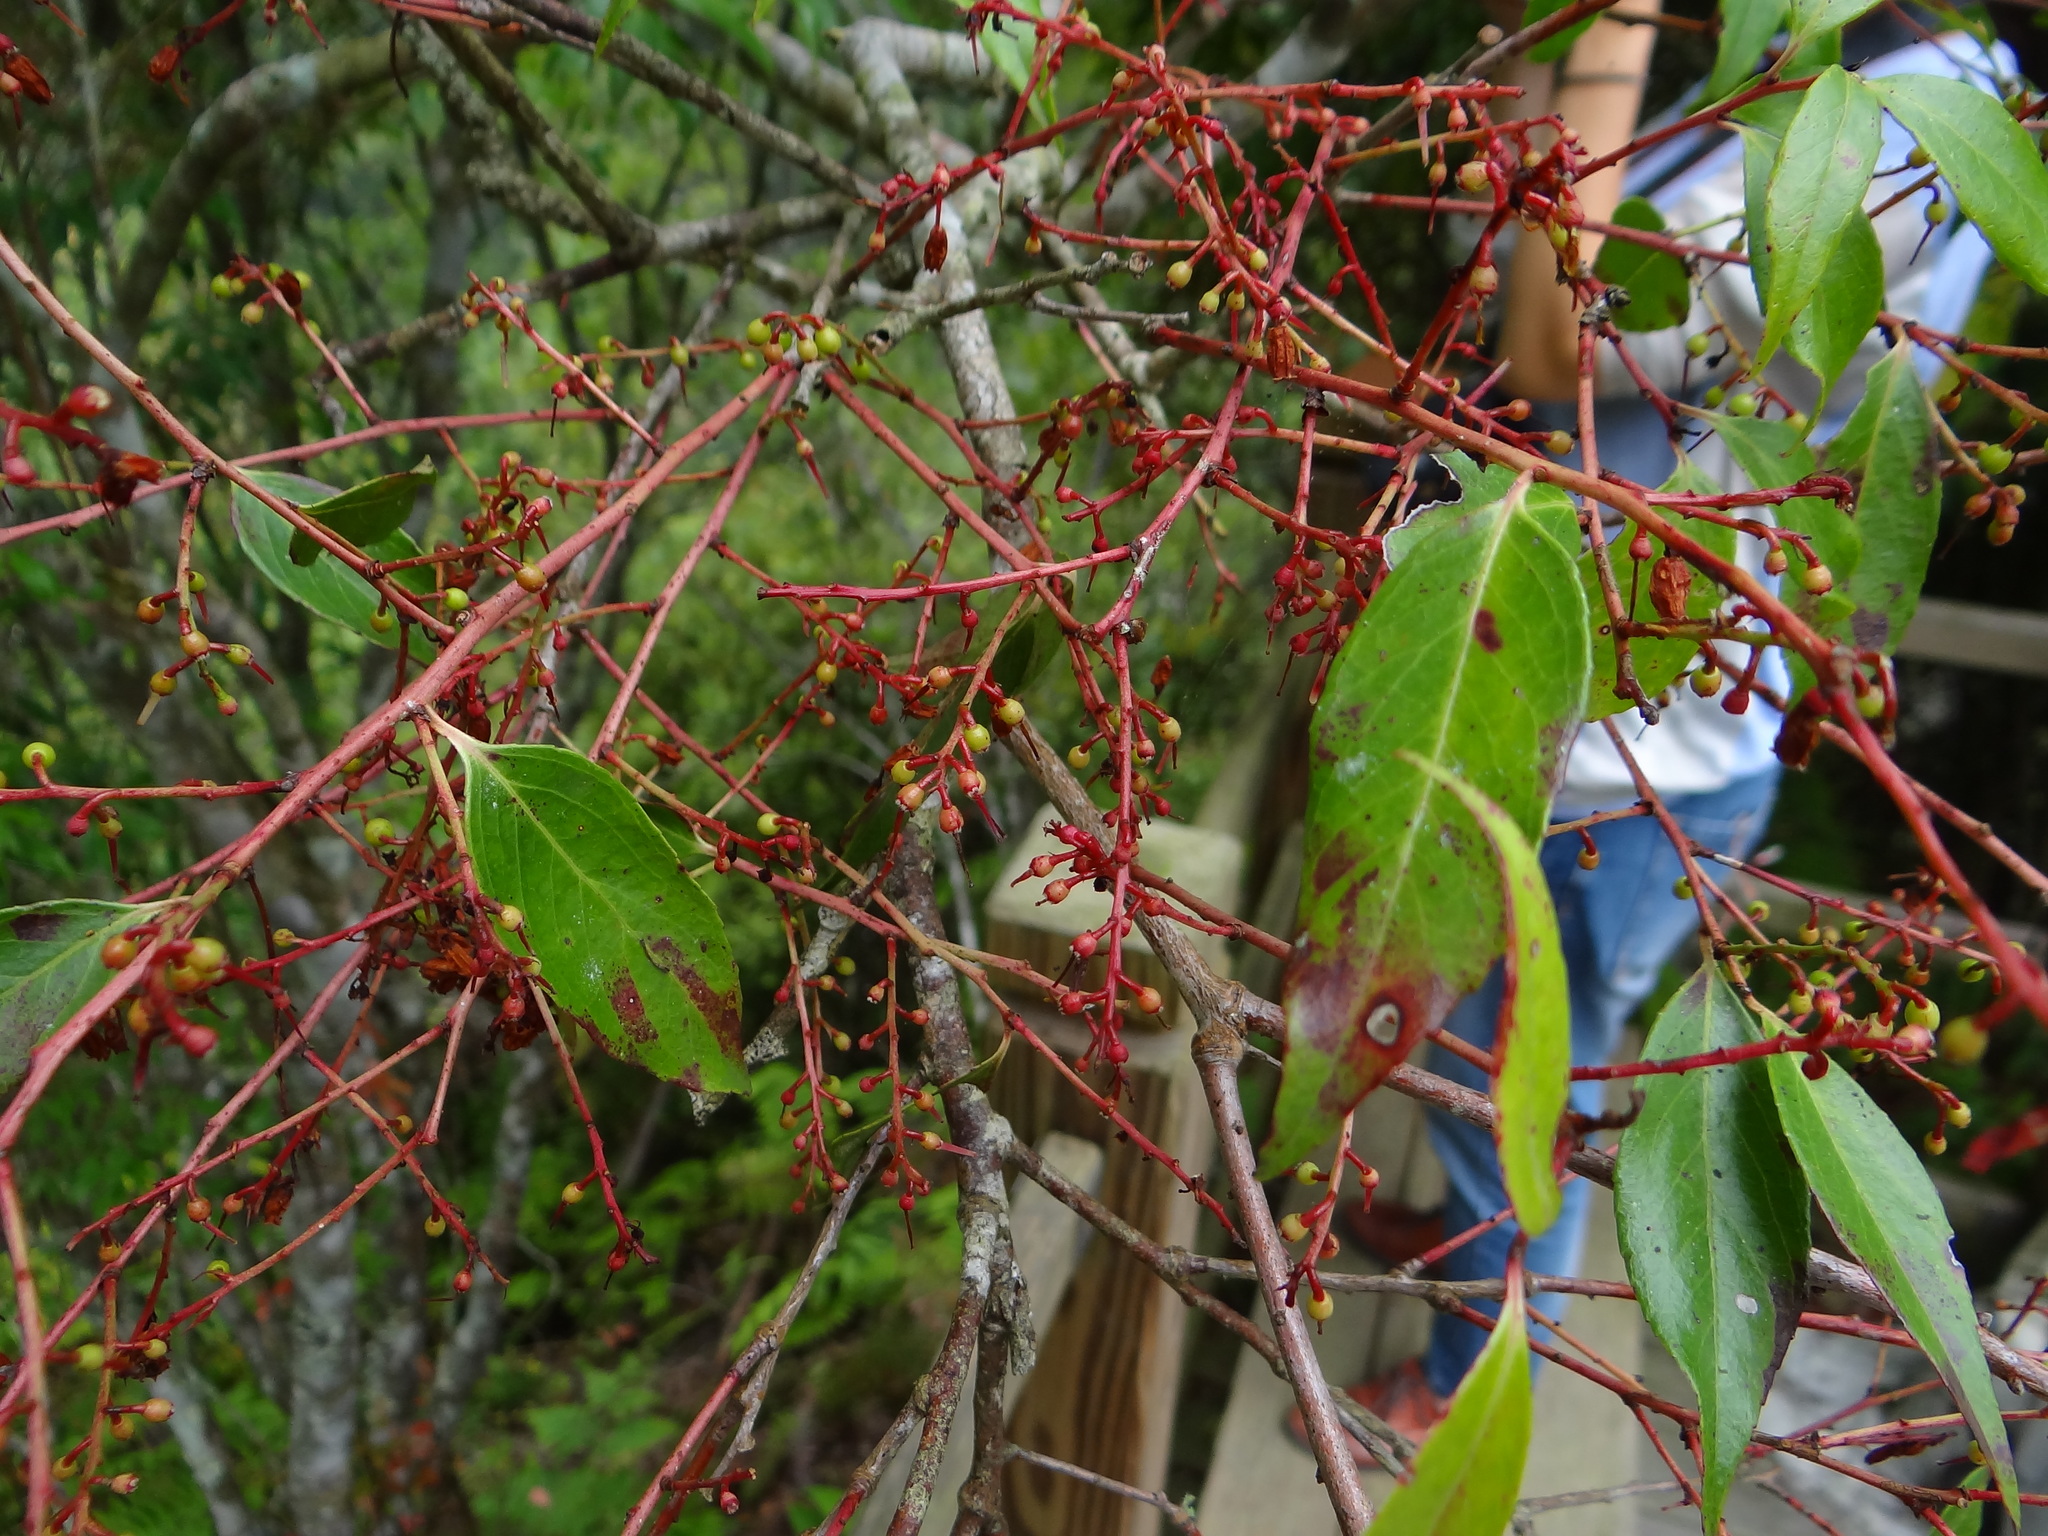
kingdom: Plantae
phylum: Tracheophyta
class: Magnoliopsida
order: Ericales
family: Ericaceae
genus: Vaccinium
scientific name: Vaccinium randaiensis
